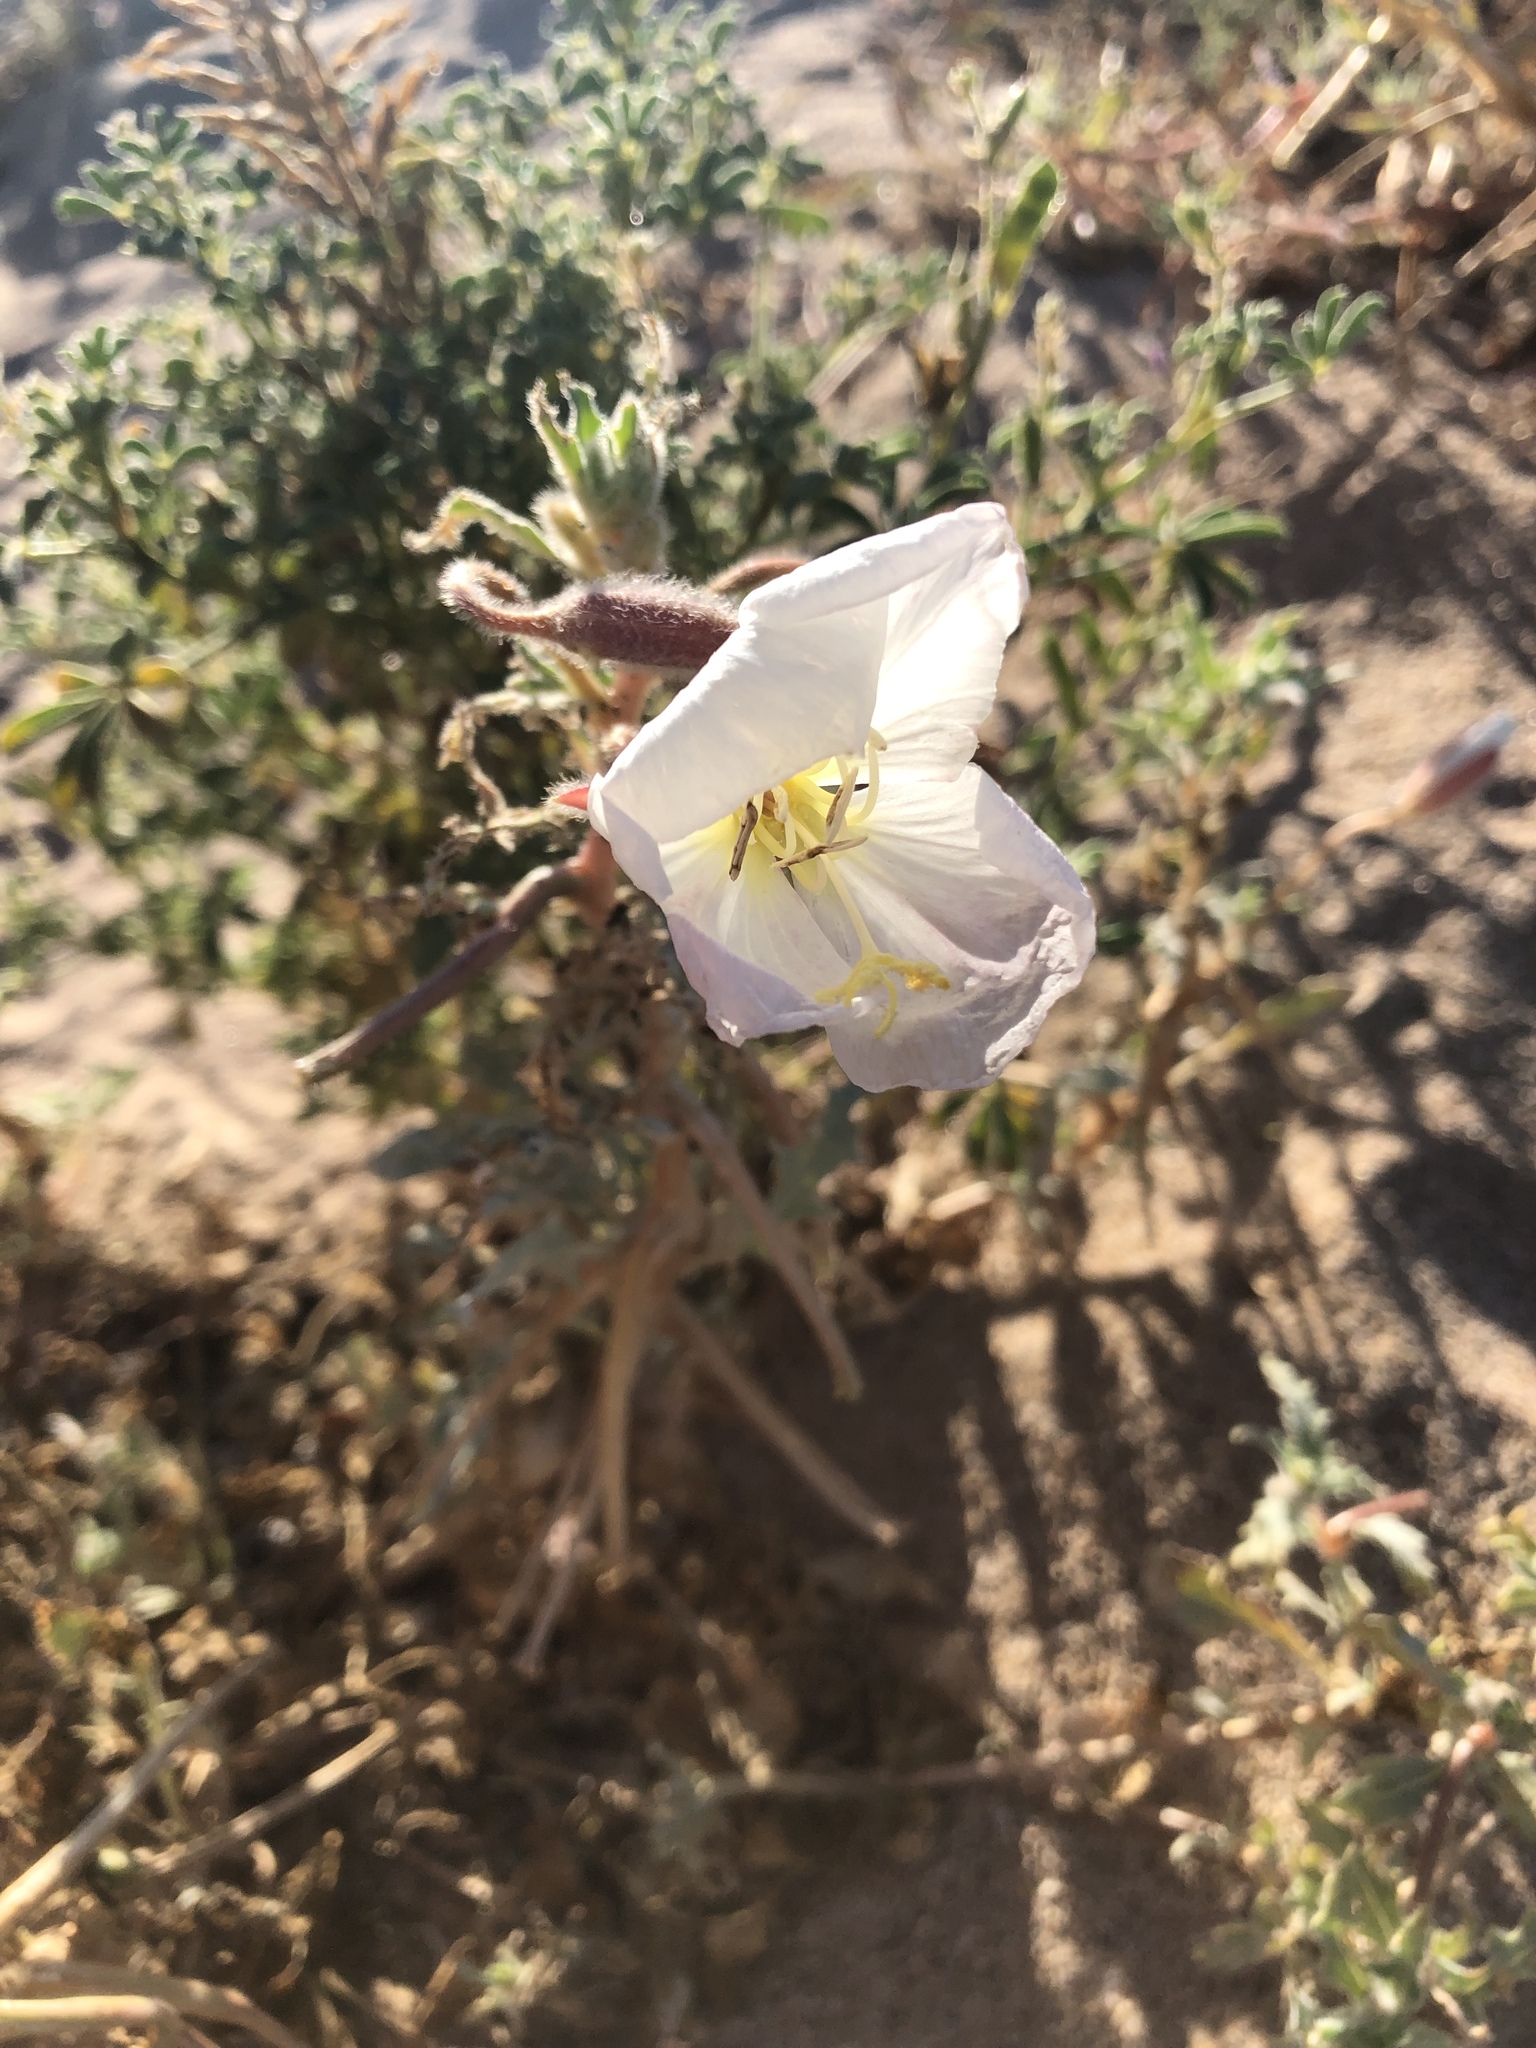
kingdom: Plantae
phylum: Tracheophyta
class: Magnoliopsida
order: Myrtales
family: Onagraceae
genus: Oenothera
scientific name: Oenothera deltoides
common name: Basket evening-primrose
